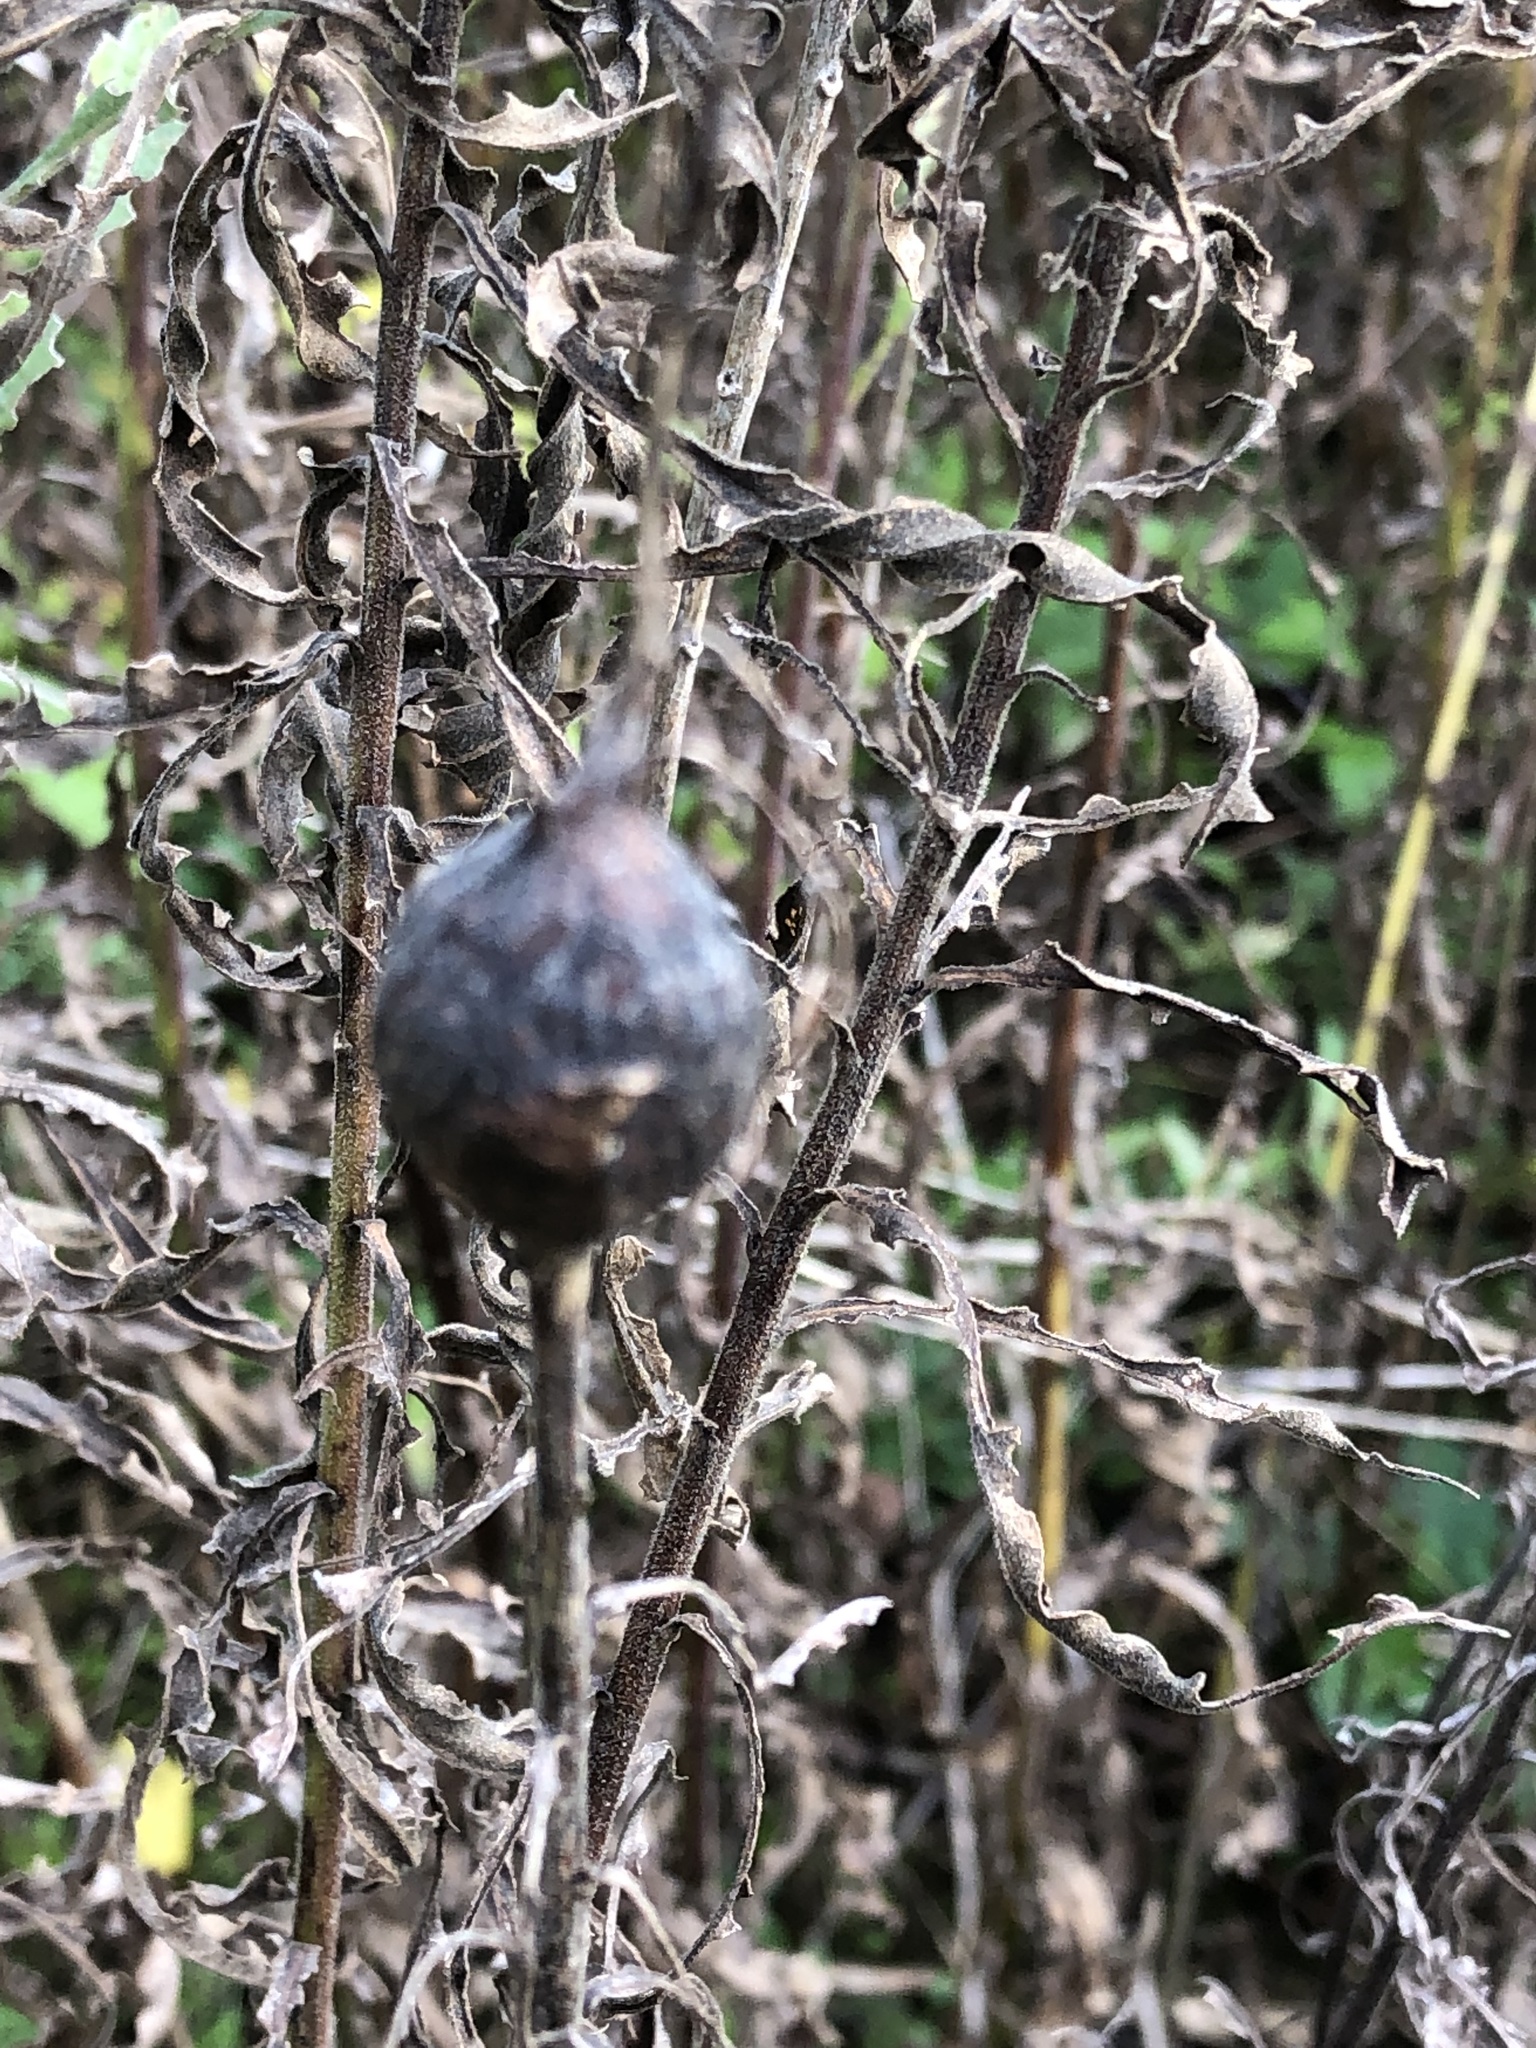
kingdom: Animalia
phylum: Arthropoda
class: Insecta
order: Diptera
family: Tephritidae
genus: Eurosta
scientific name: Eurosta solidaginis
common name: Goldenrod gall fly
